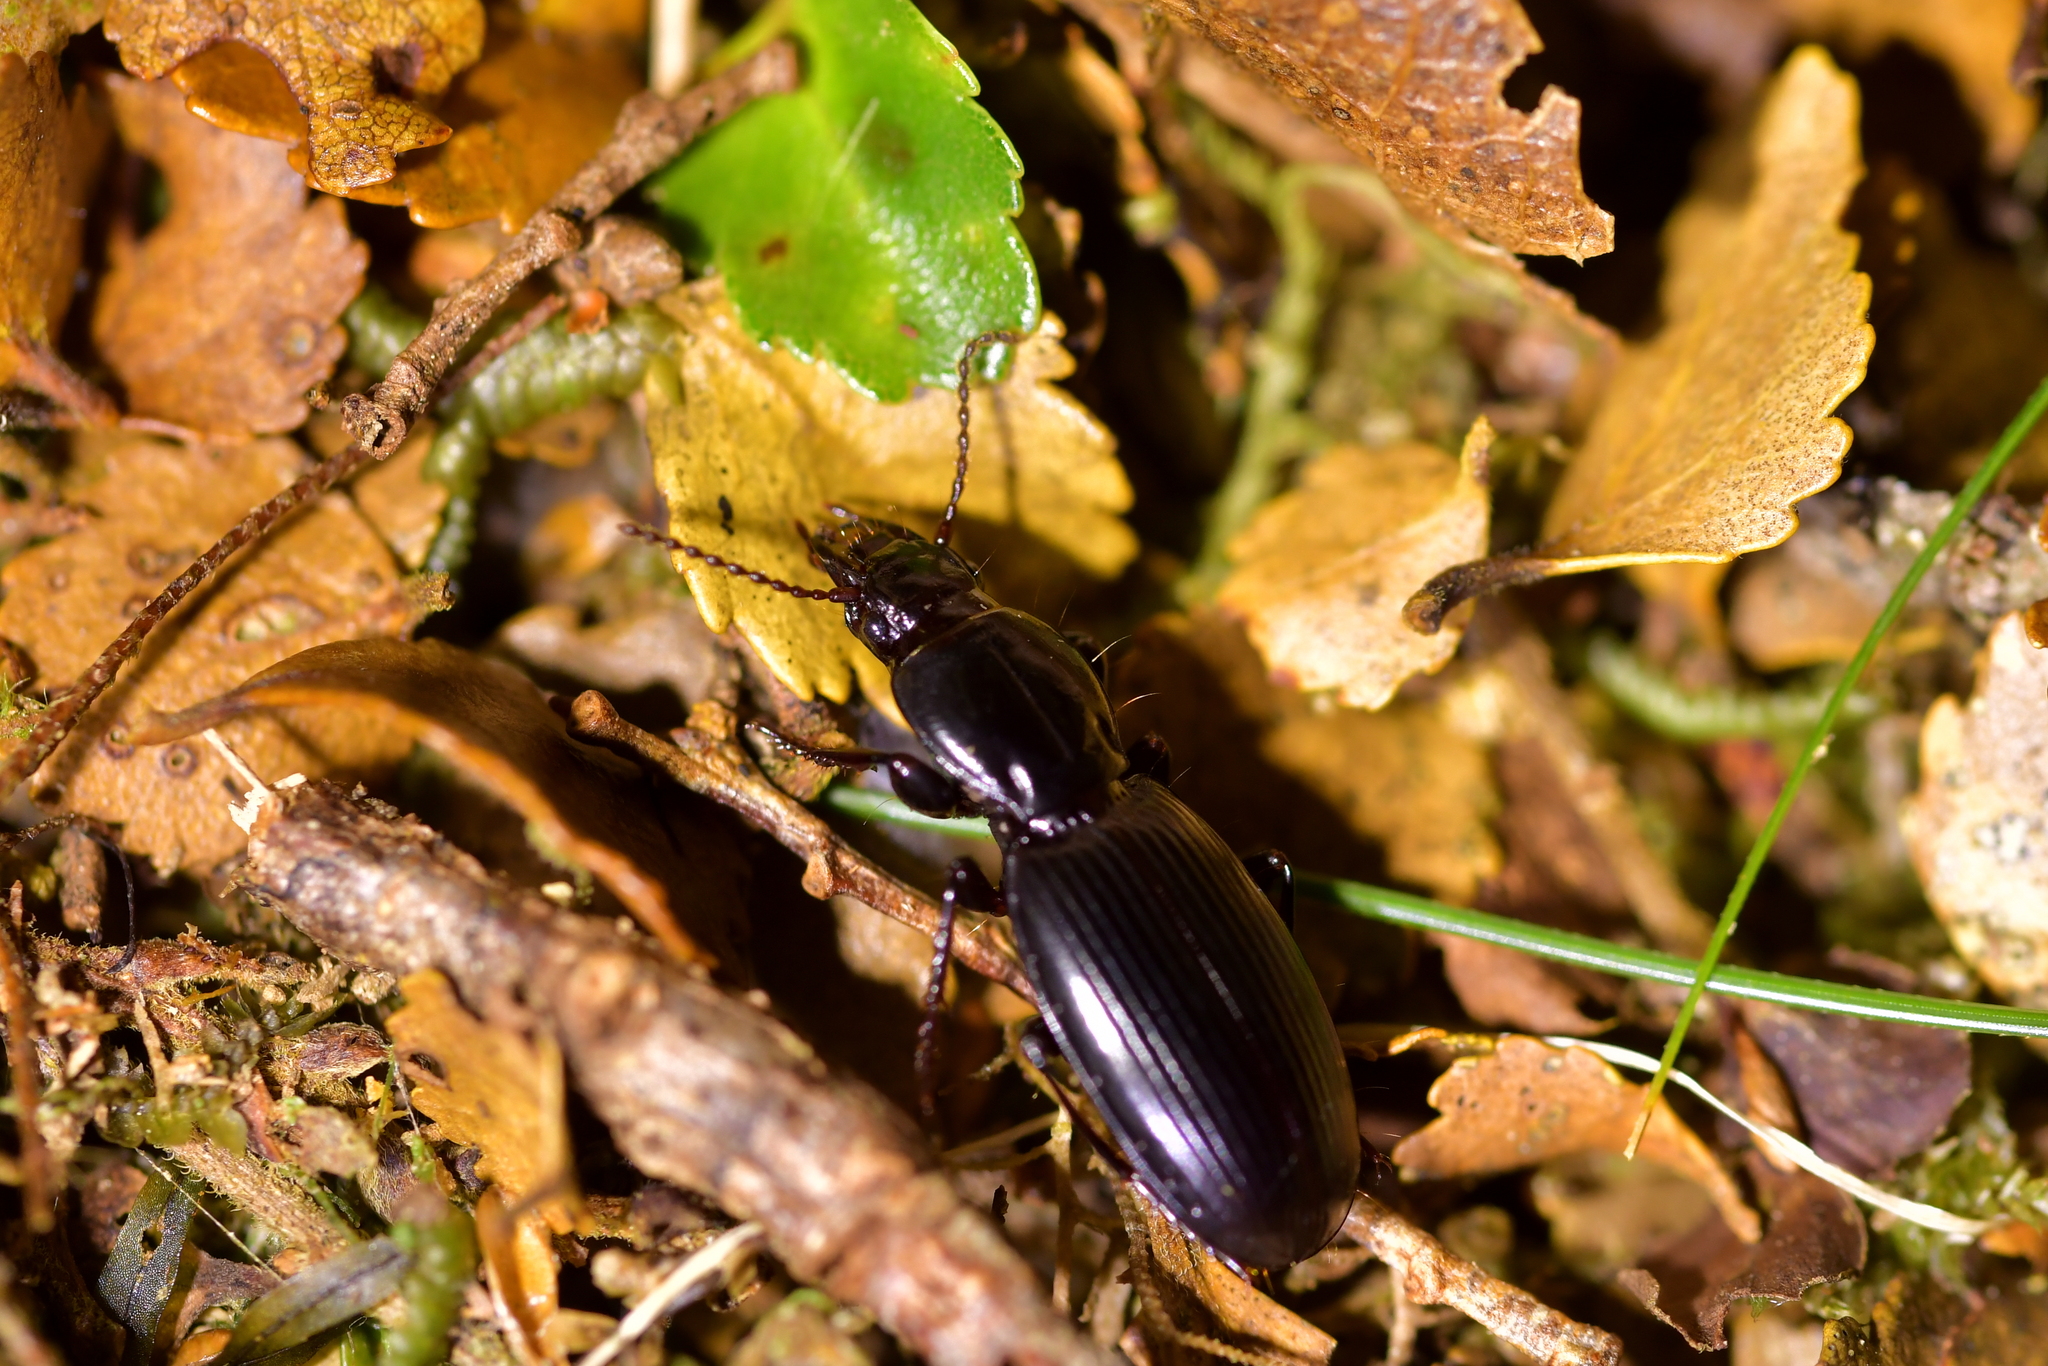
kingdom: Animalia
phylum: Arthropoda
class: Insecta
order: Coleoptera
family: Carabidae
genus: Diglymma
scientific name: Diglymma clivinoides
